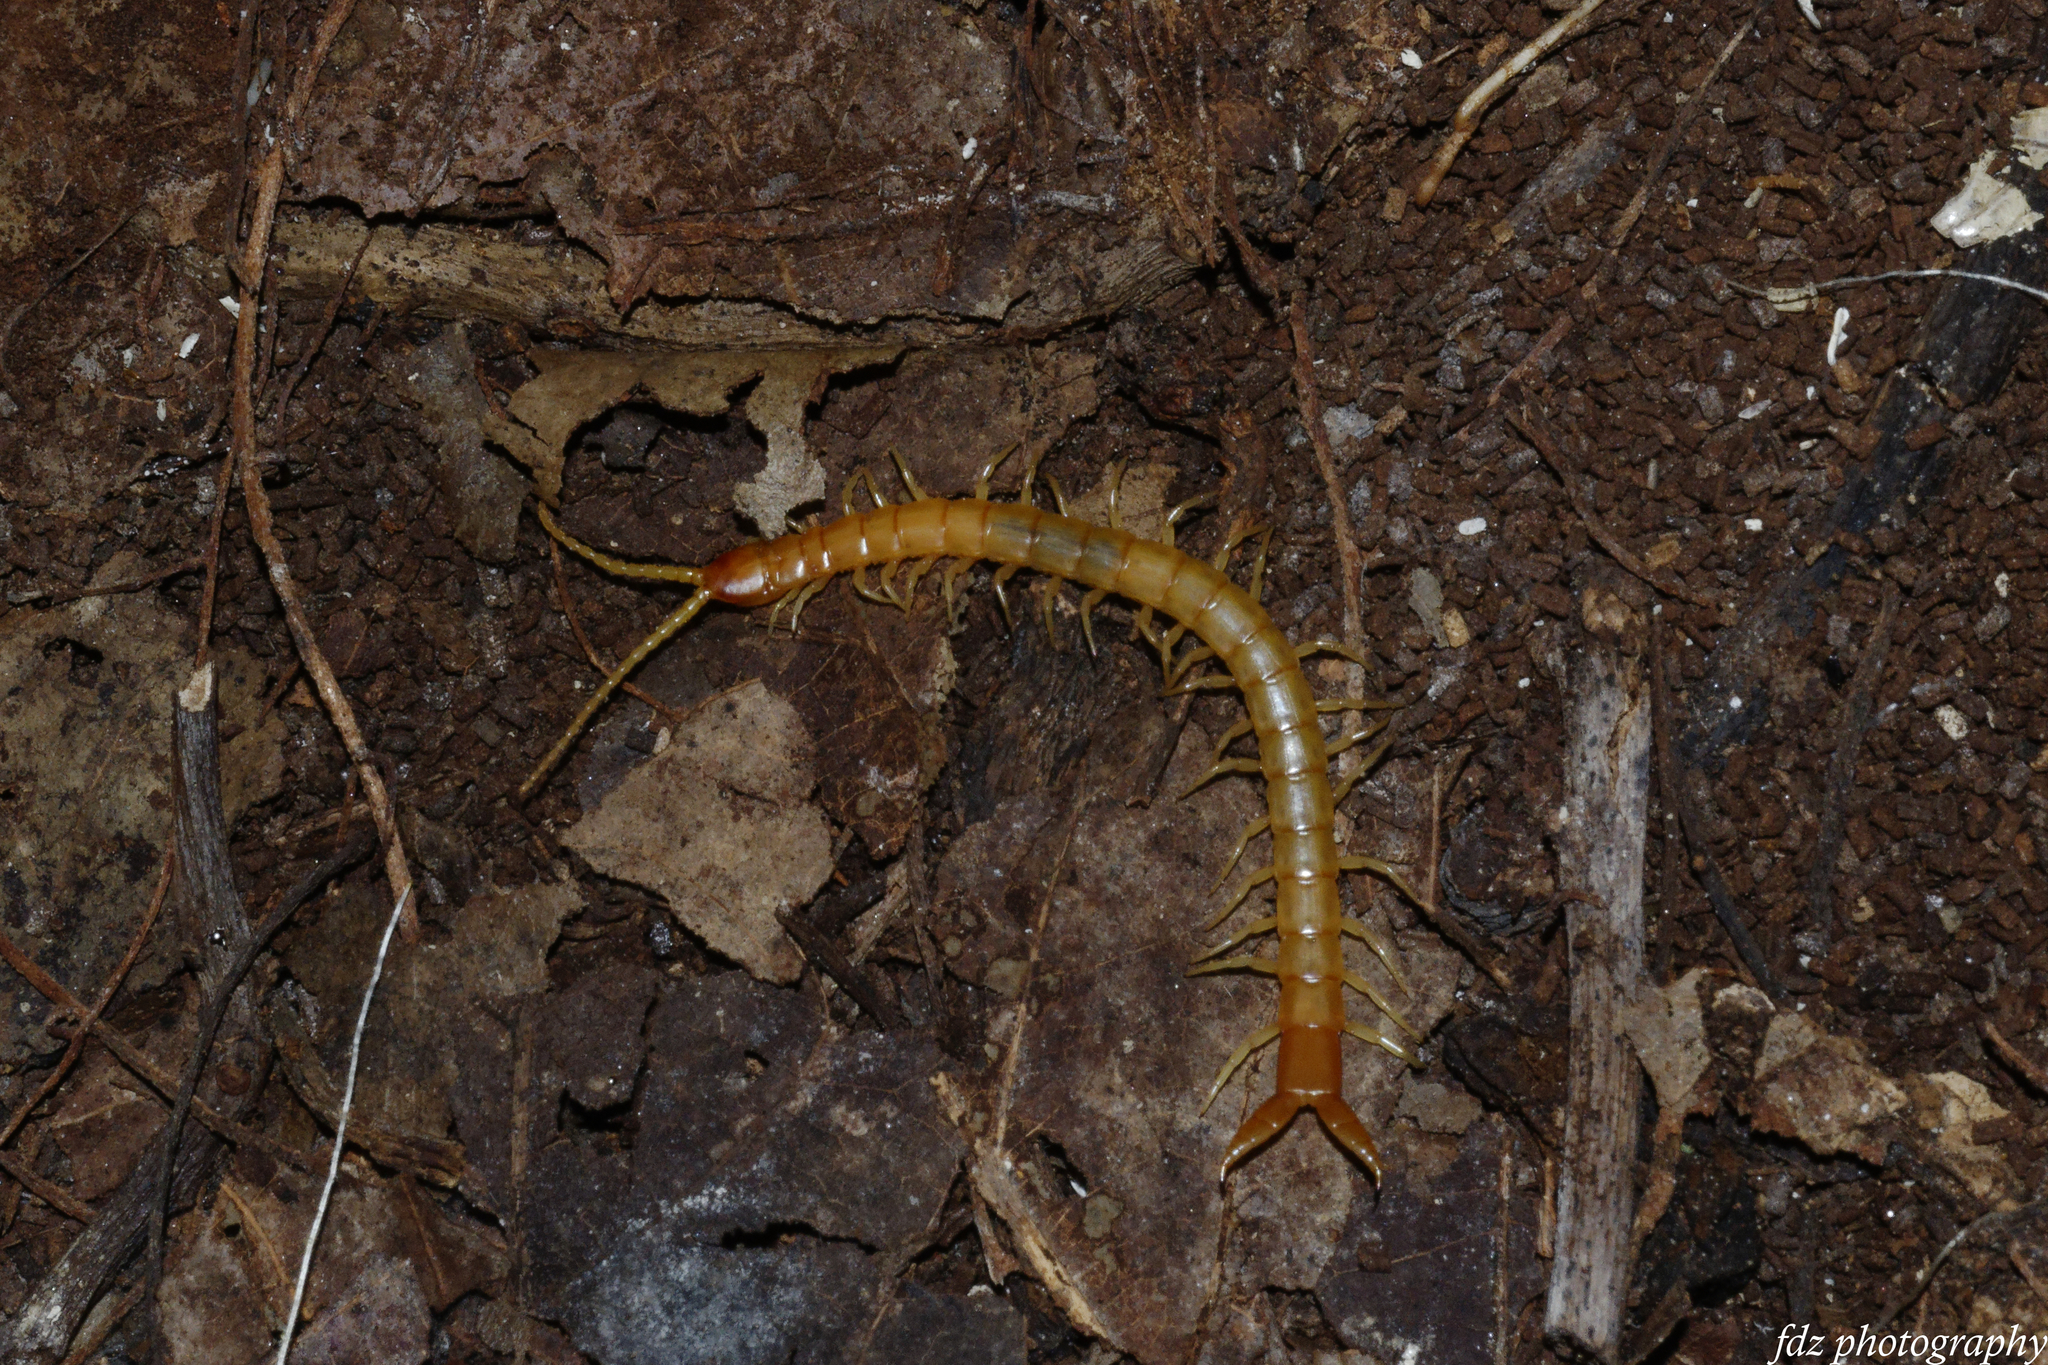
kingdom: Animalia
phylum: Arthropoda
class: Chilopoda
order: Scolopendromorpha
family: Cryptopidae
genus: Theatops
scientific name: Theatops erythrocephalus
